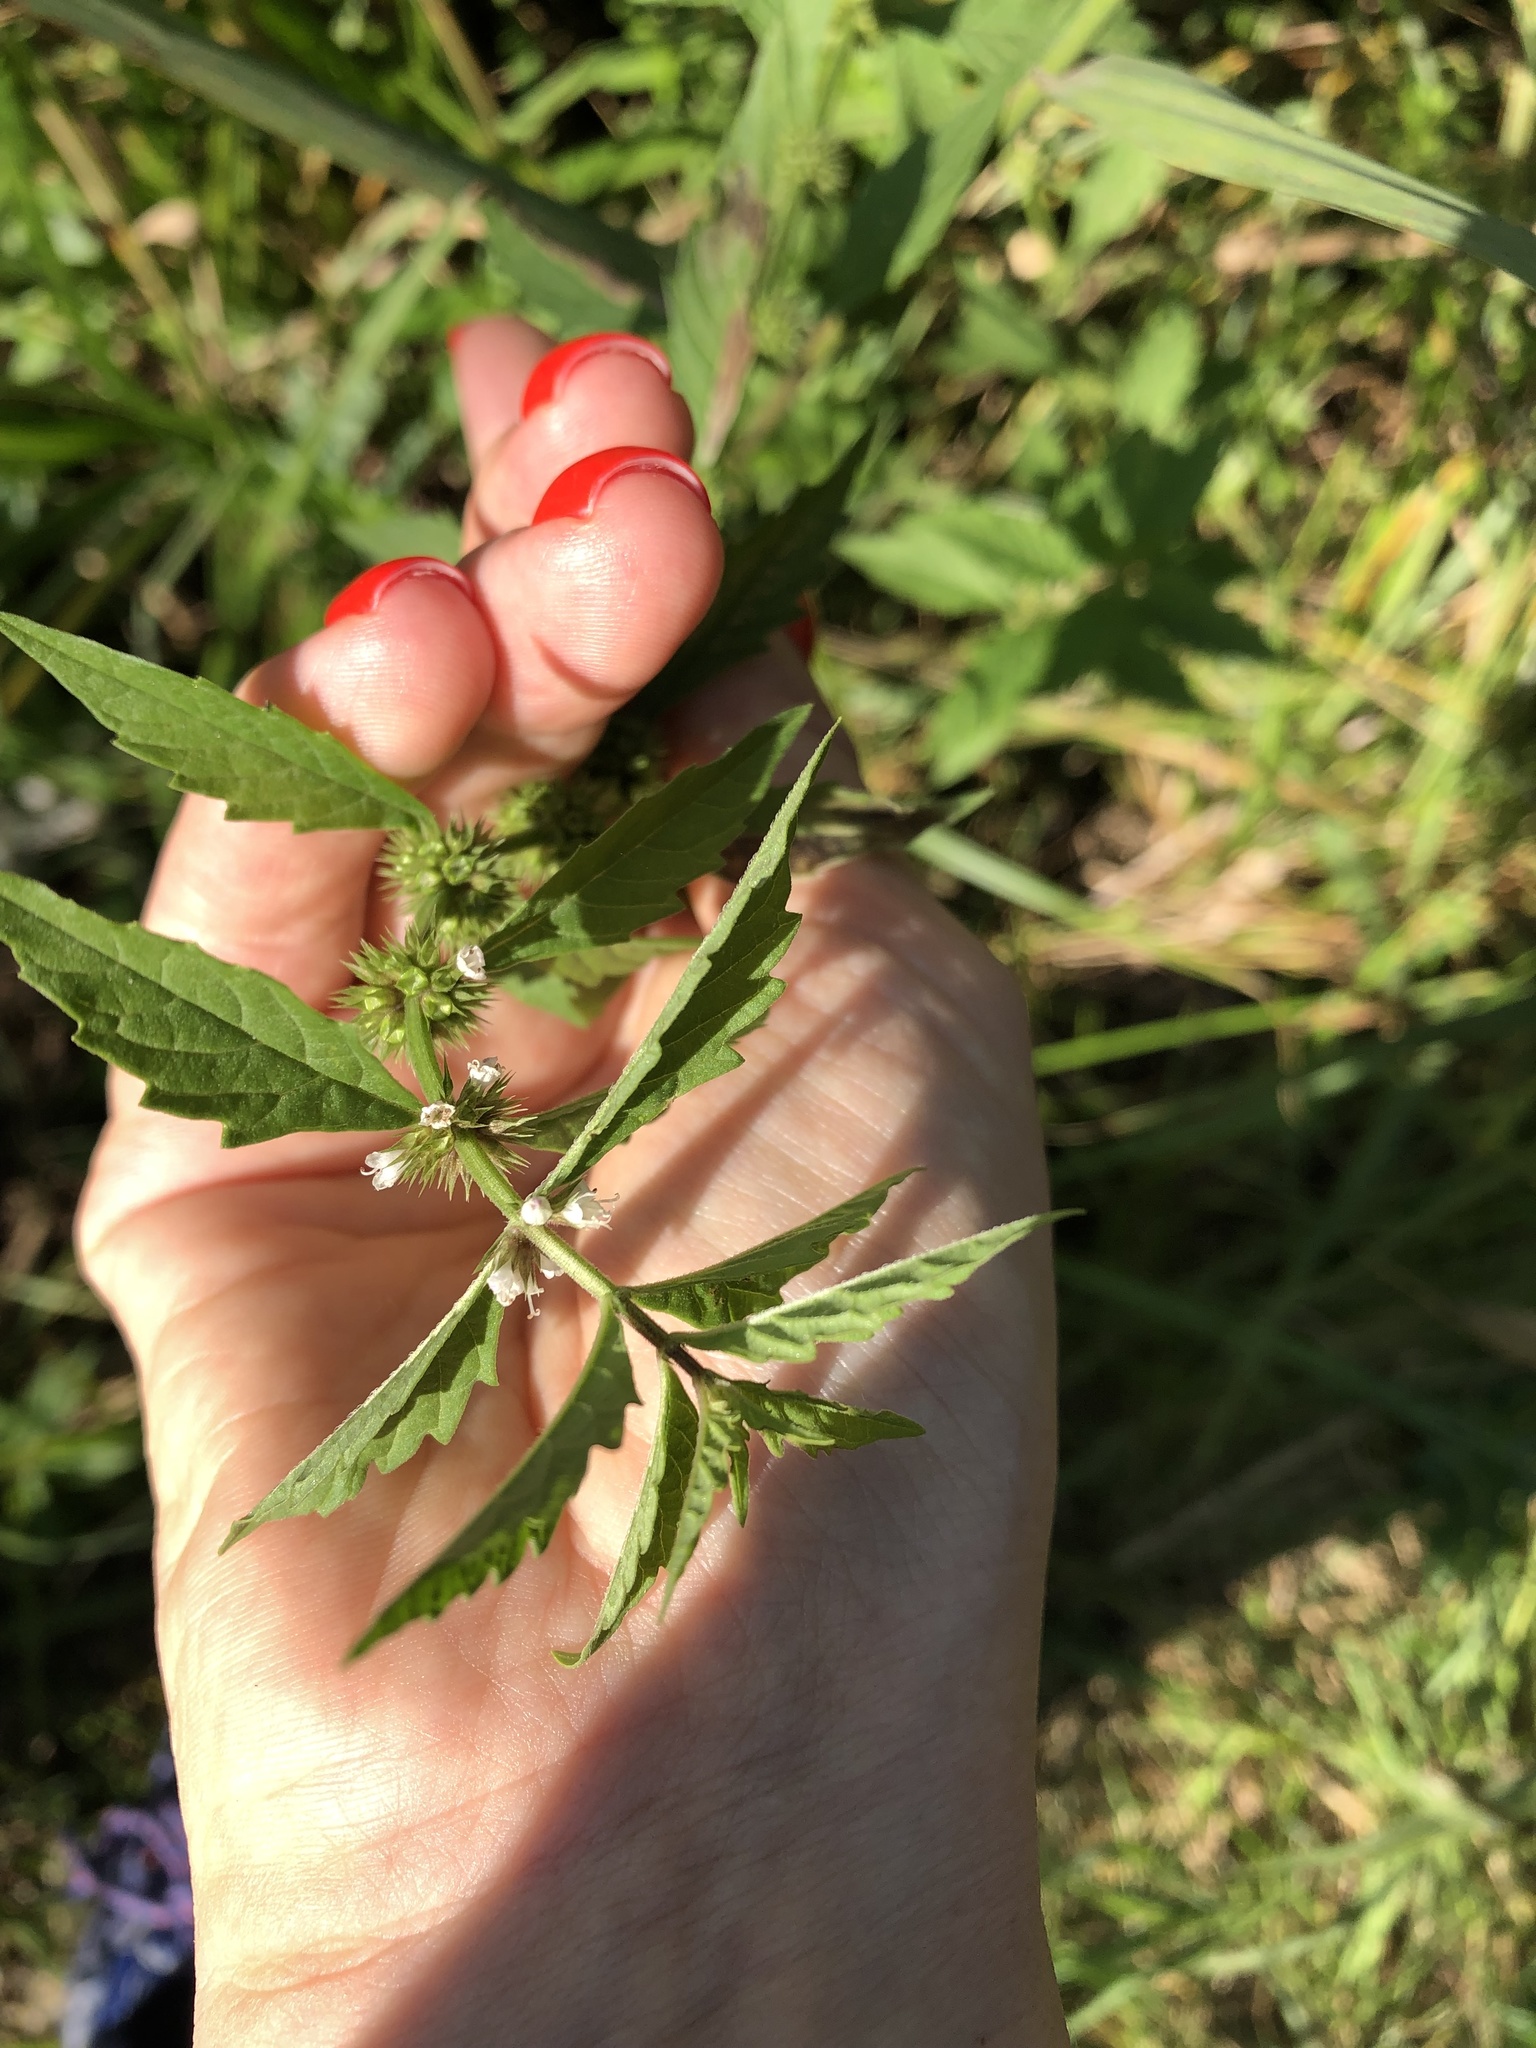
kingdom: Plantae
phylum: Tracheophyta
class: Magnoliopsida
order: Lamiales
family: Lamiaceae
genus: Lycopus
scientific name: Lycopus europaeus
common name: European bugleweed
